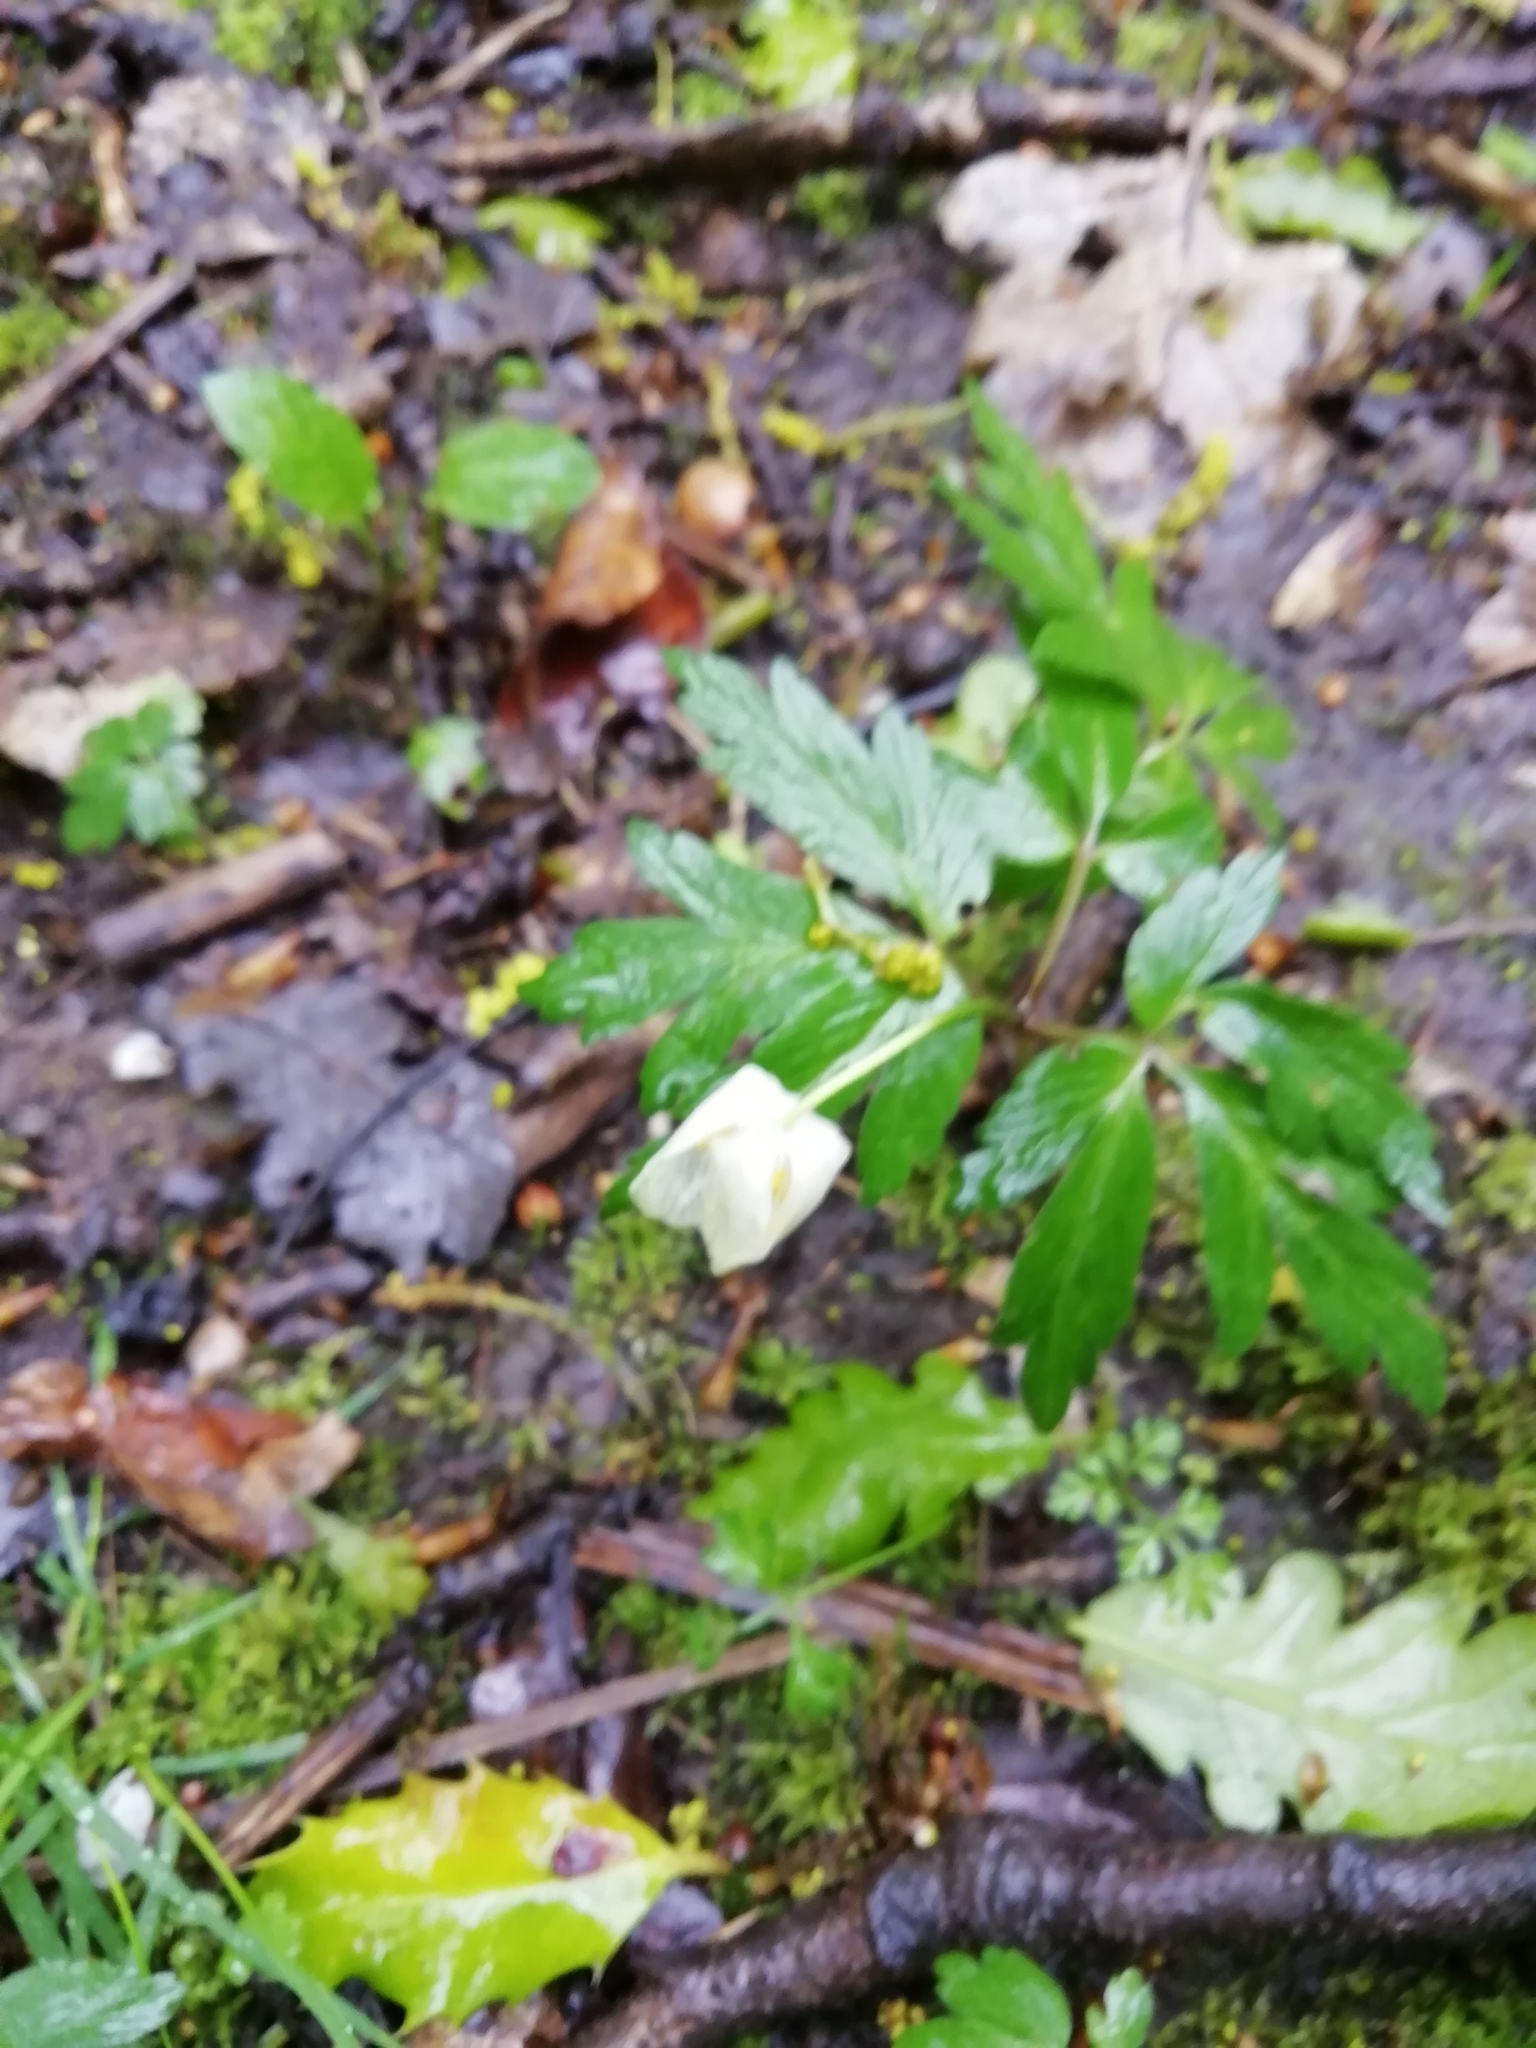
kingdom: Plantae
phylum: Tracheophyta
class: Magnoliopsida
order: Ranunculales
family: Ranunculaceae
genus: Anemone
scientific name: Anemone nemorosa
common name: Wood anemone
